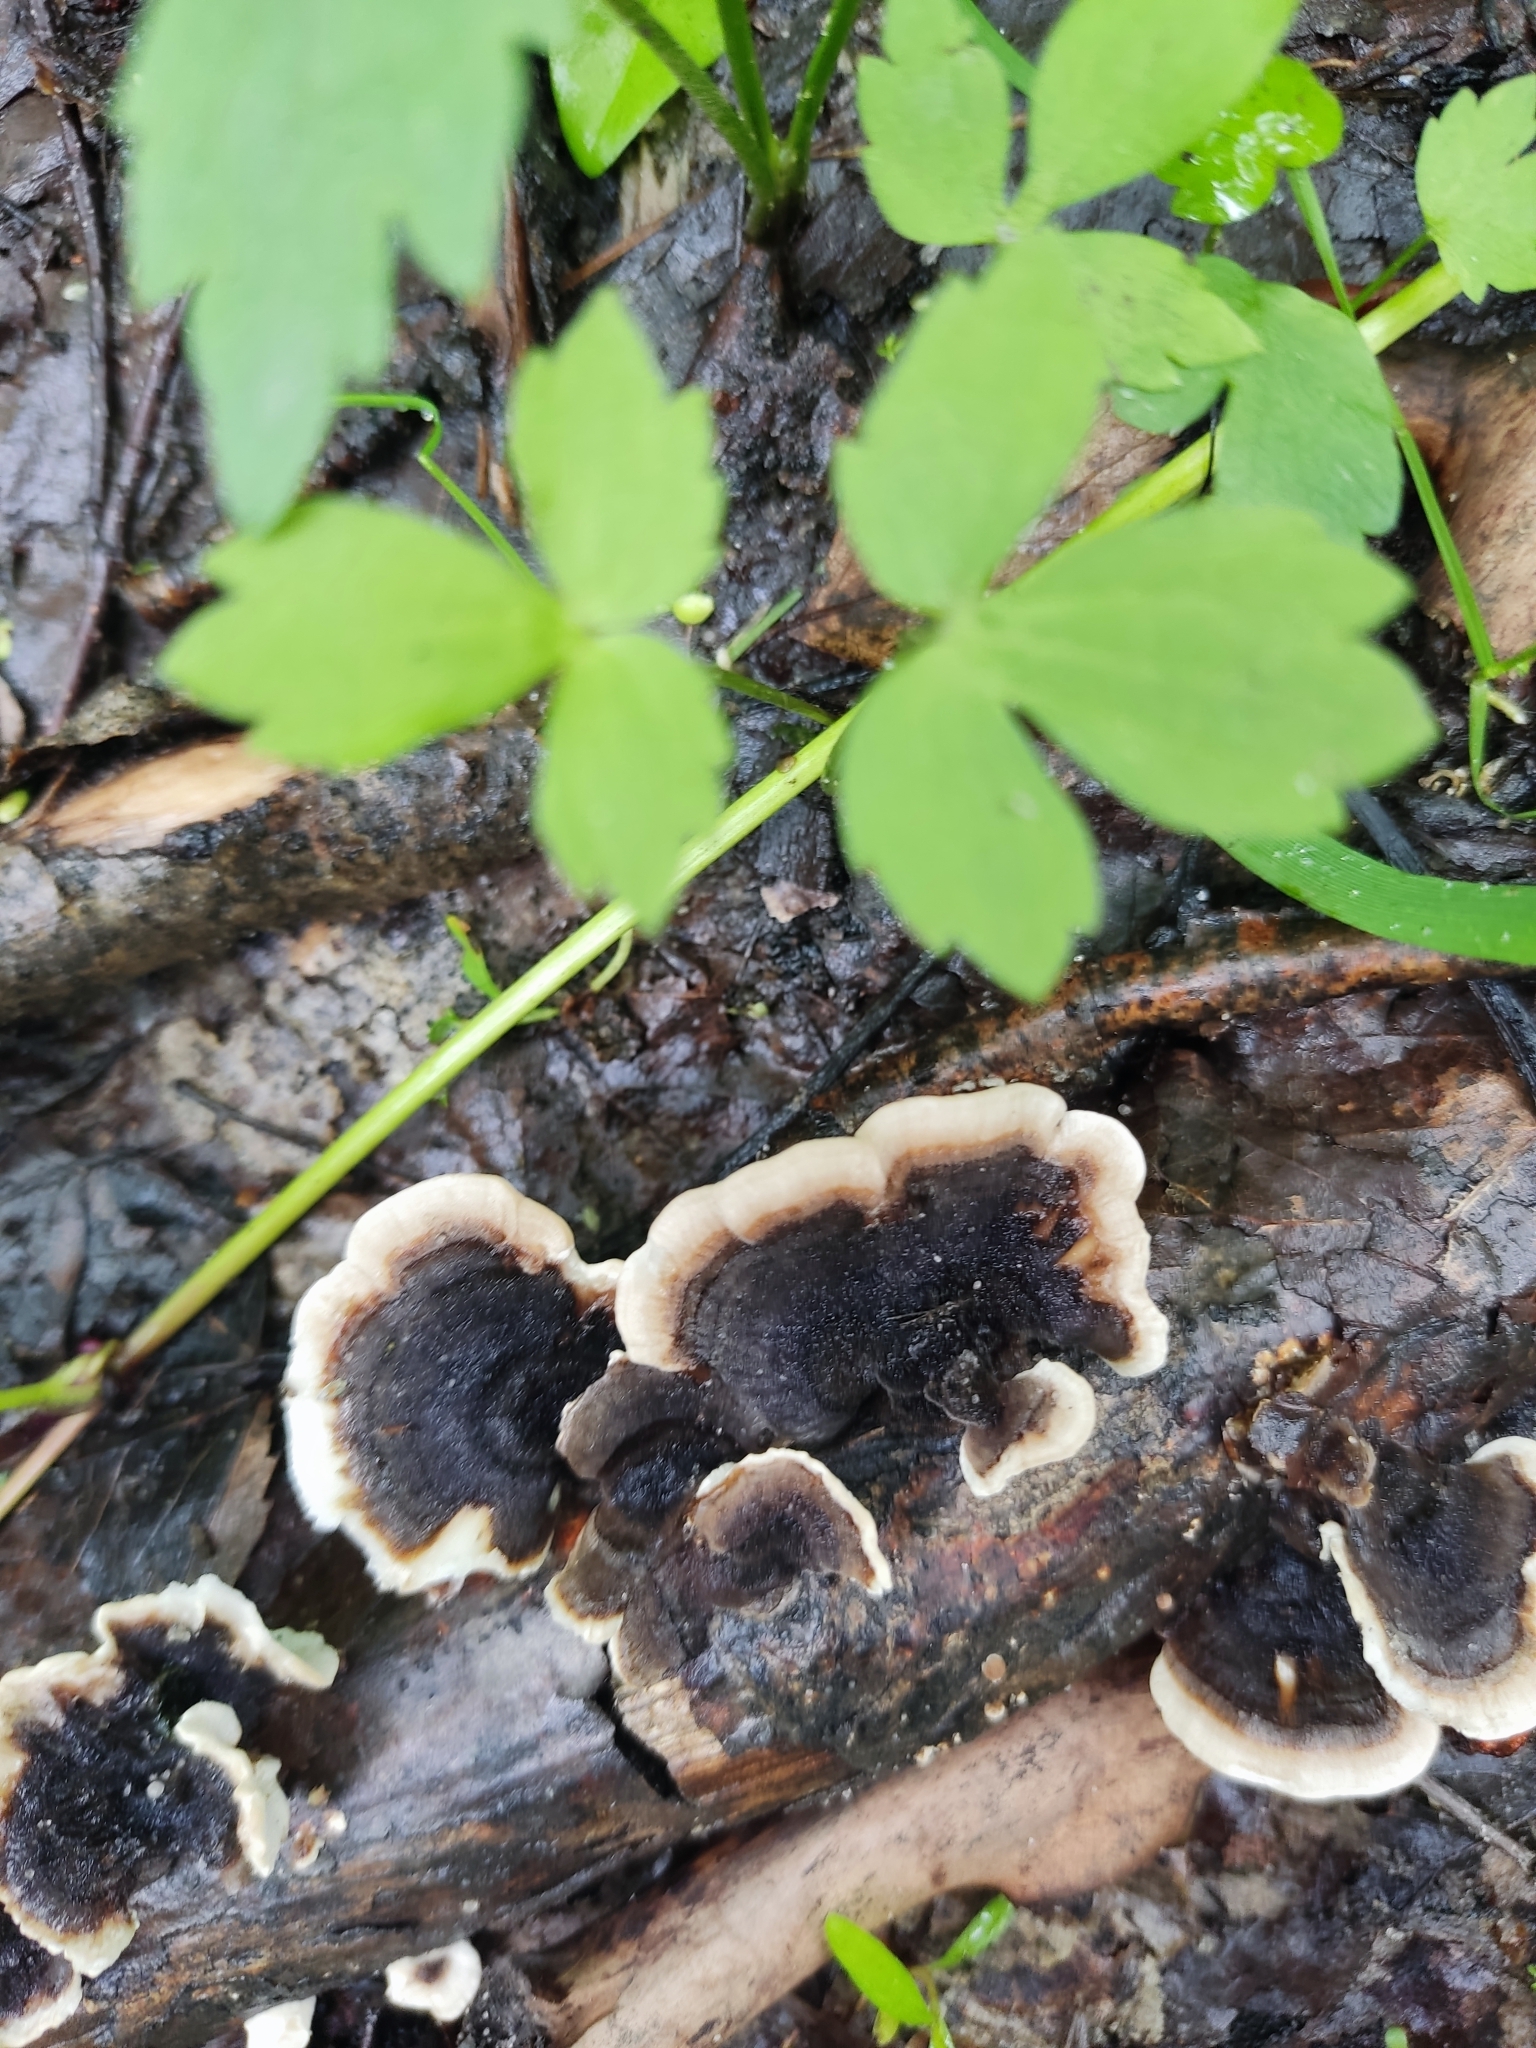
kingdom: Fungi
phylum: Basidiomycota
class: Agaricomycetes
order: Polyporales
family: Polyporaceae
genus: Trametes
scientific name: Trametes versicolor
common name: Turkeytail
